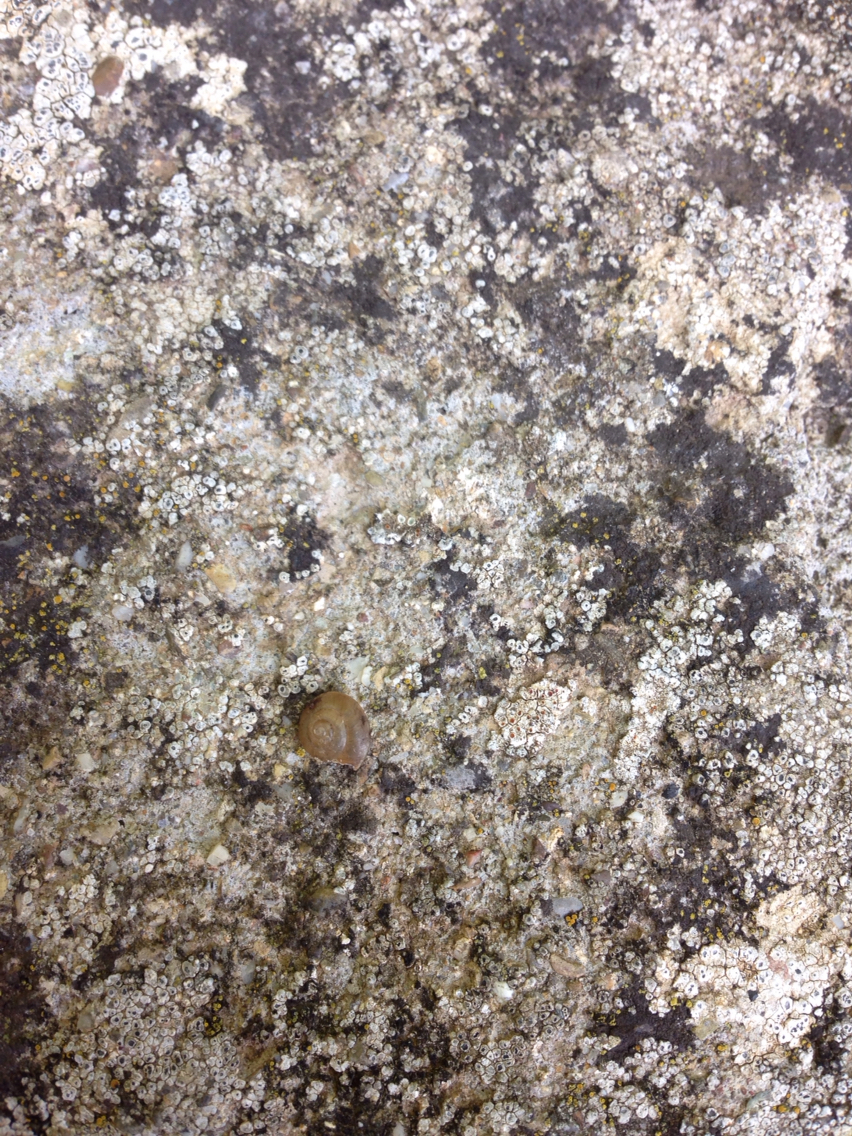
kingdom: Animalia
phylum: Mollusca
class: Gastropoda
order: Stylommatophora
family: Hygromiidae
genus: Hygromia
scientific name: Hygromia cinctella
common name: Girdled snail
